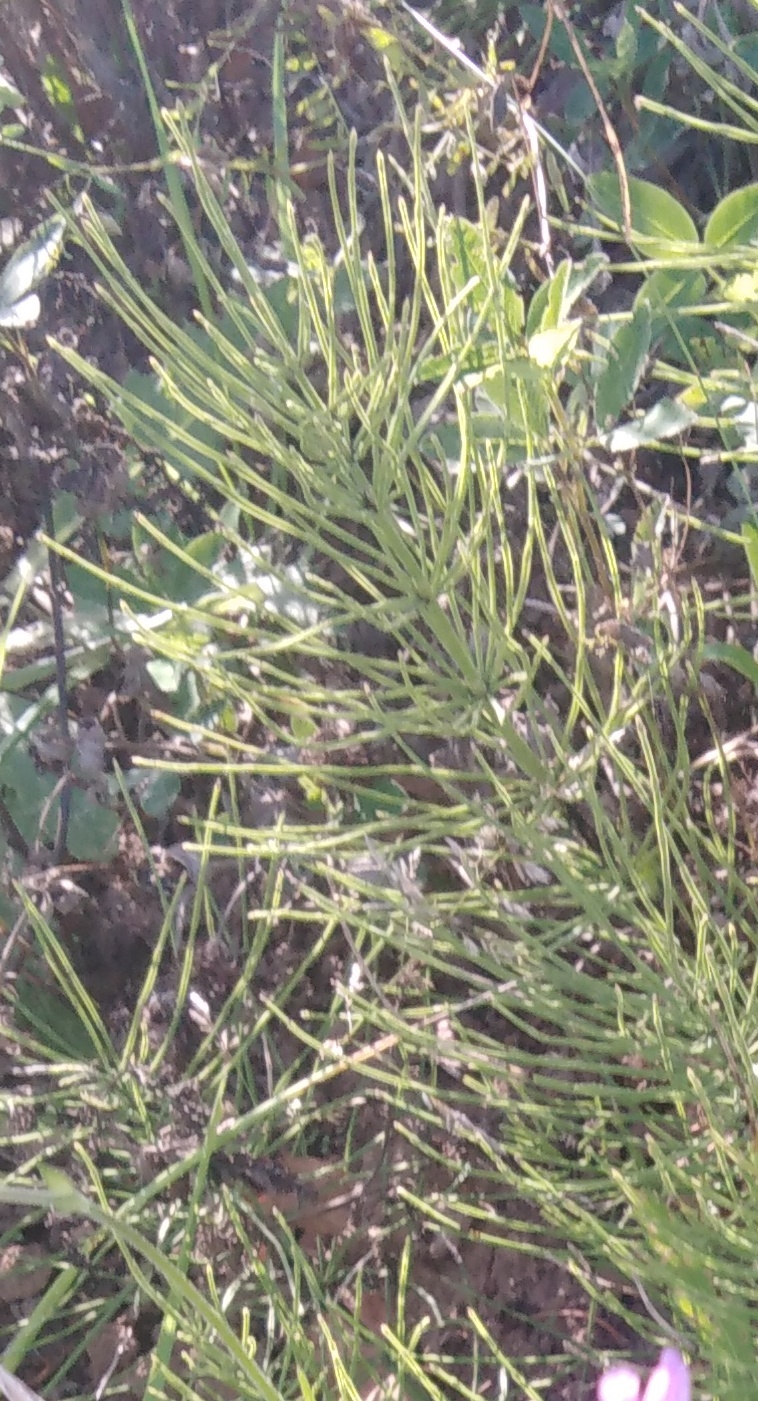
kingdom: Plantae
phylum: Tracheophyta
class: Polypodiopsida
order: Equisetales
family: Equisetaceae
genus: Equisetum
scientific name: Equisetum arvense
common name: Field horsetail
